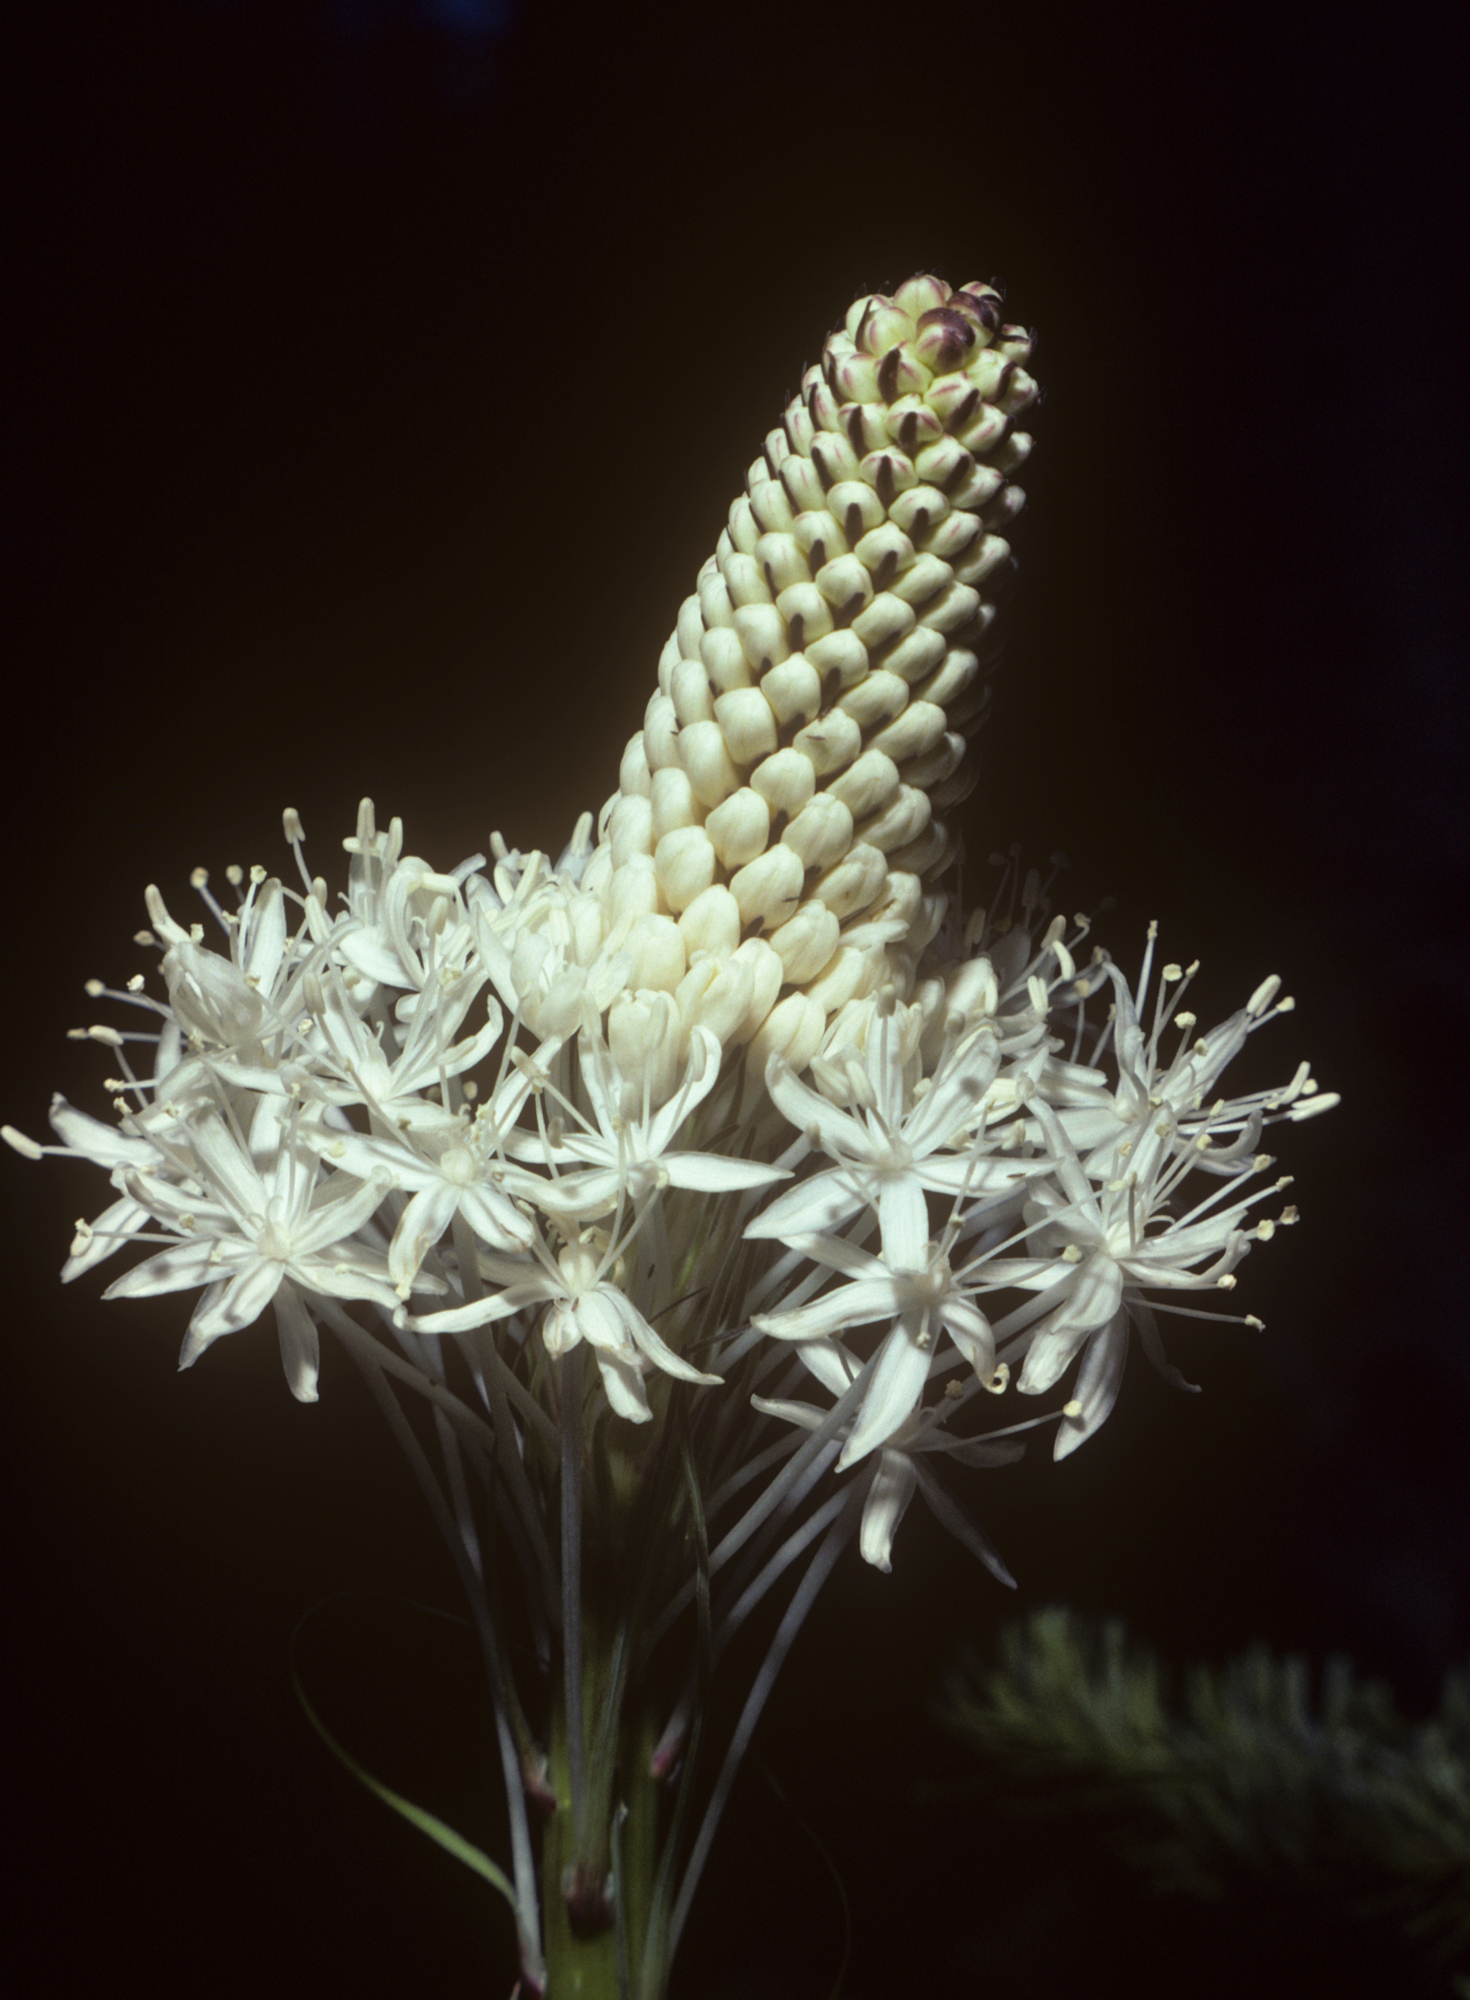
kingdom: Plantae
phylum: Tracheophyta
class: Liliopsida
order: Liliales
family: Melanthiaceae
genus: Xerophyllum
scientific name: Xerophyllum tenax
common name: Bear-grass
